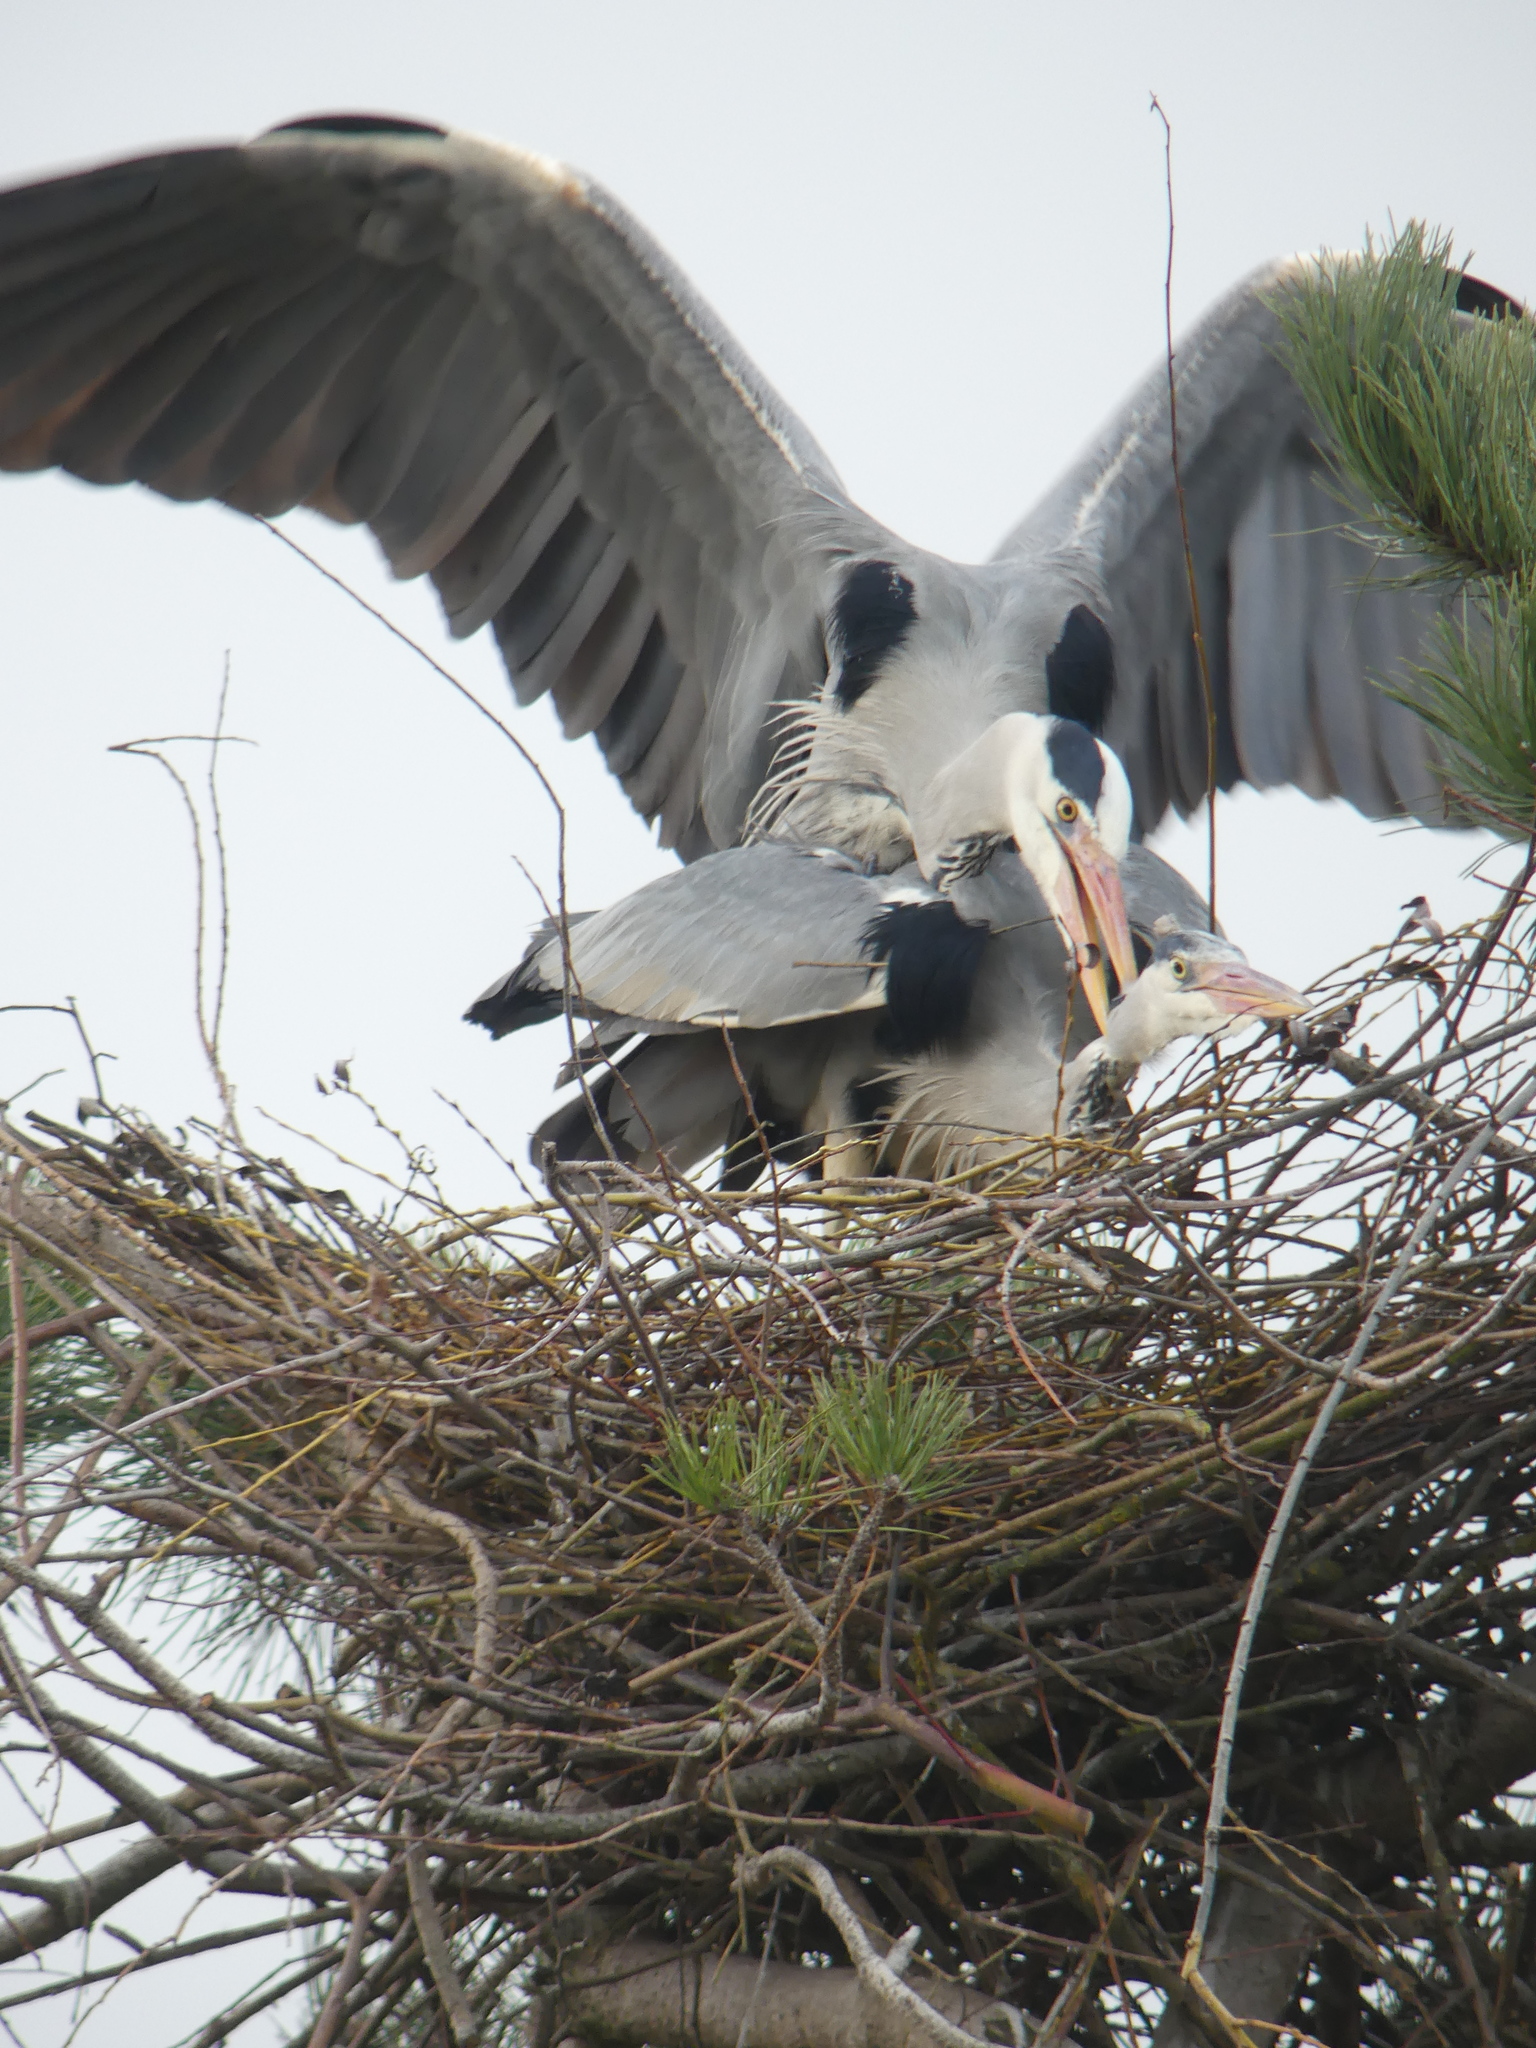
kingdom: Animalia
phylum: Chordata
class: Aves
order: Pelecaniformes
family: Ardeidae
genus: Ardea
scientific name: Ardea cinerea
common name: Grey heron
